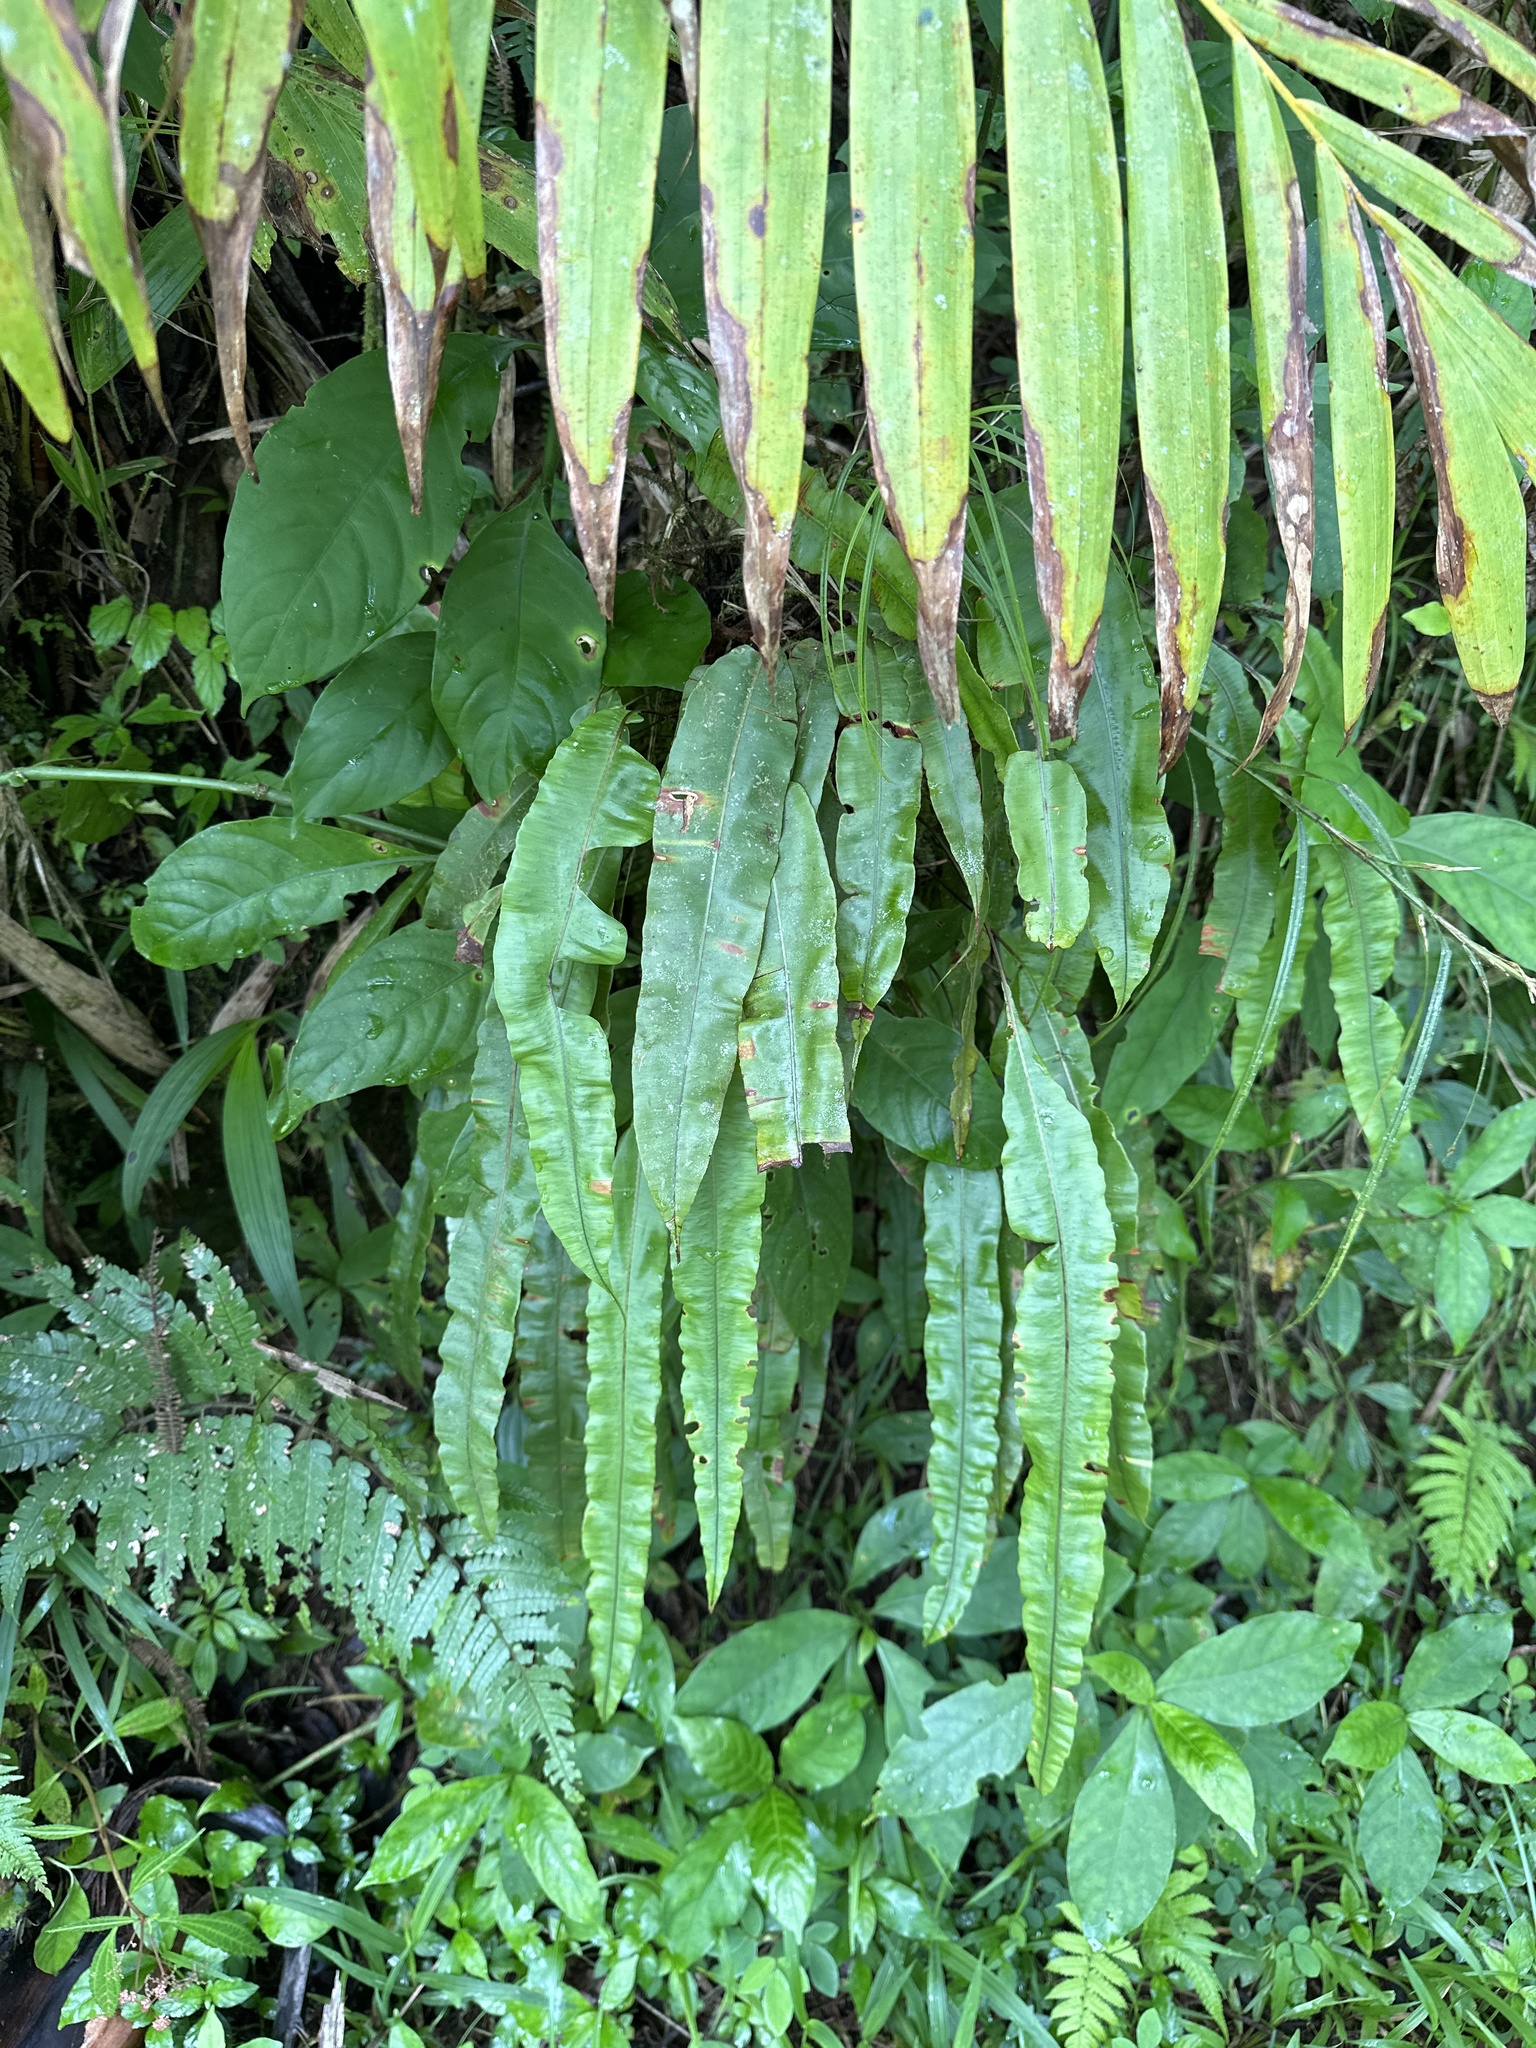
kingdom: Plantae
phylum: Tracheophyta
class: Polypodiopsida
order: Polypodiales
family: Oleandraceae
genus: Oleandra
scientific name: Oleandra articulata
